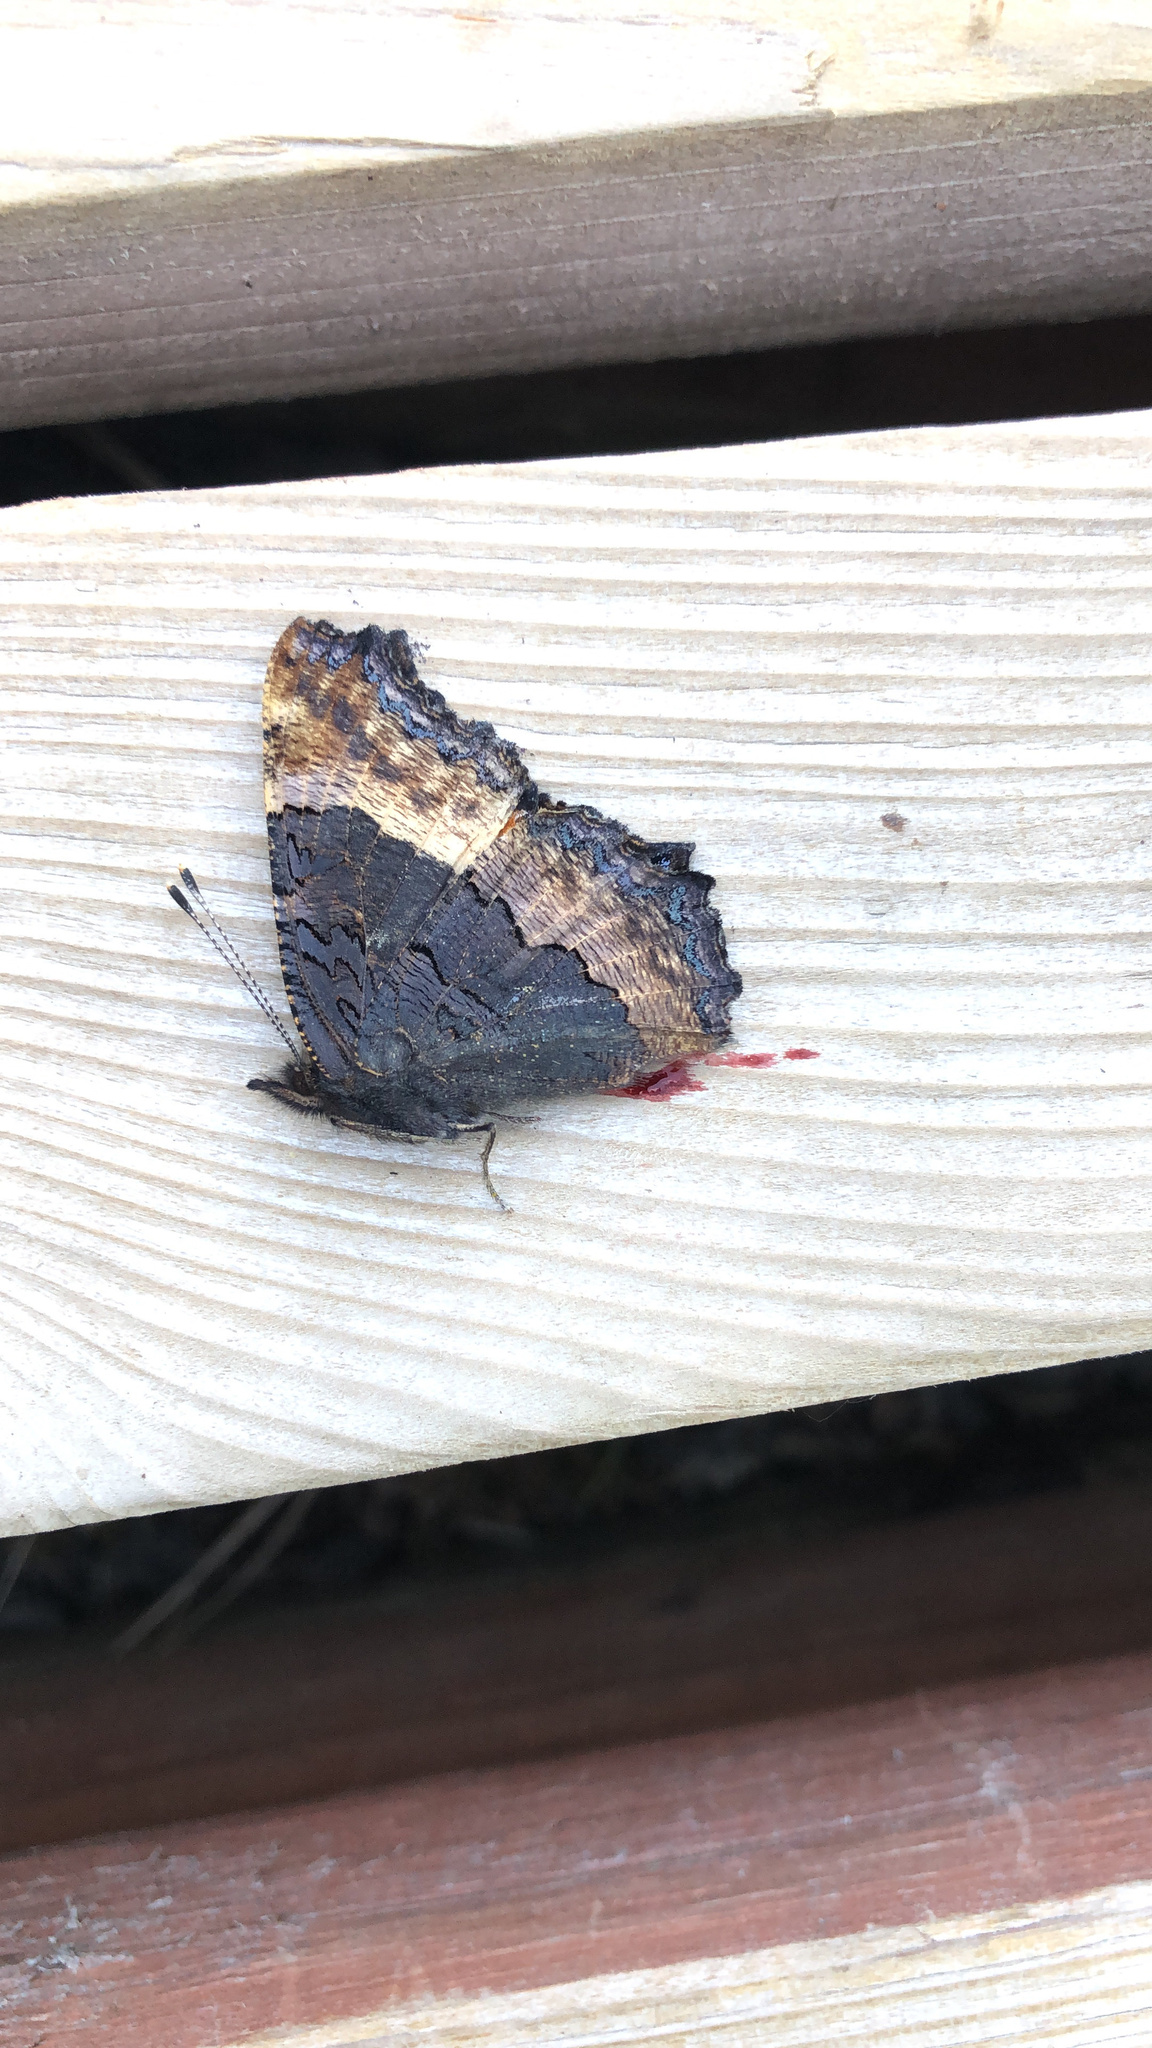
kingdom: Animalia
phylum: Arthropoda
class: Insecta
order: Lepidoptera
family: Nymphalidae
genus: Aglais
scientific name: Aglais milberti
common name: Milbert's tortoiseshell
